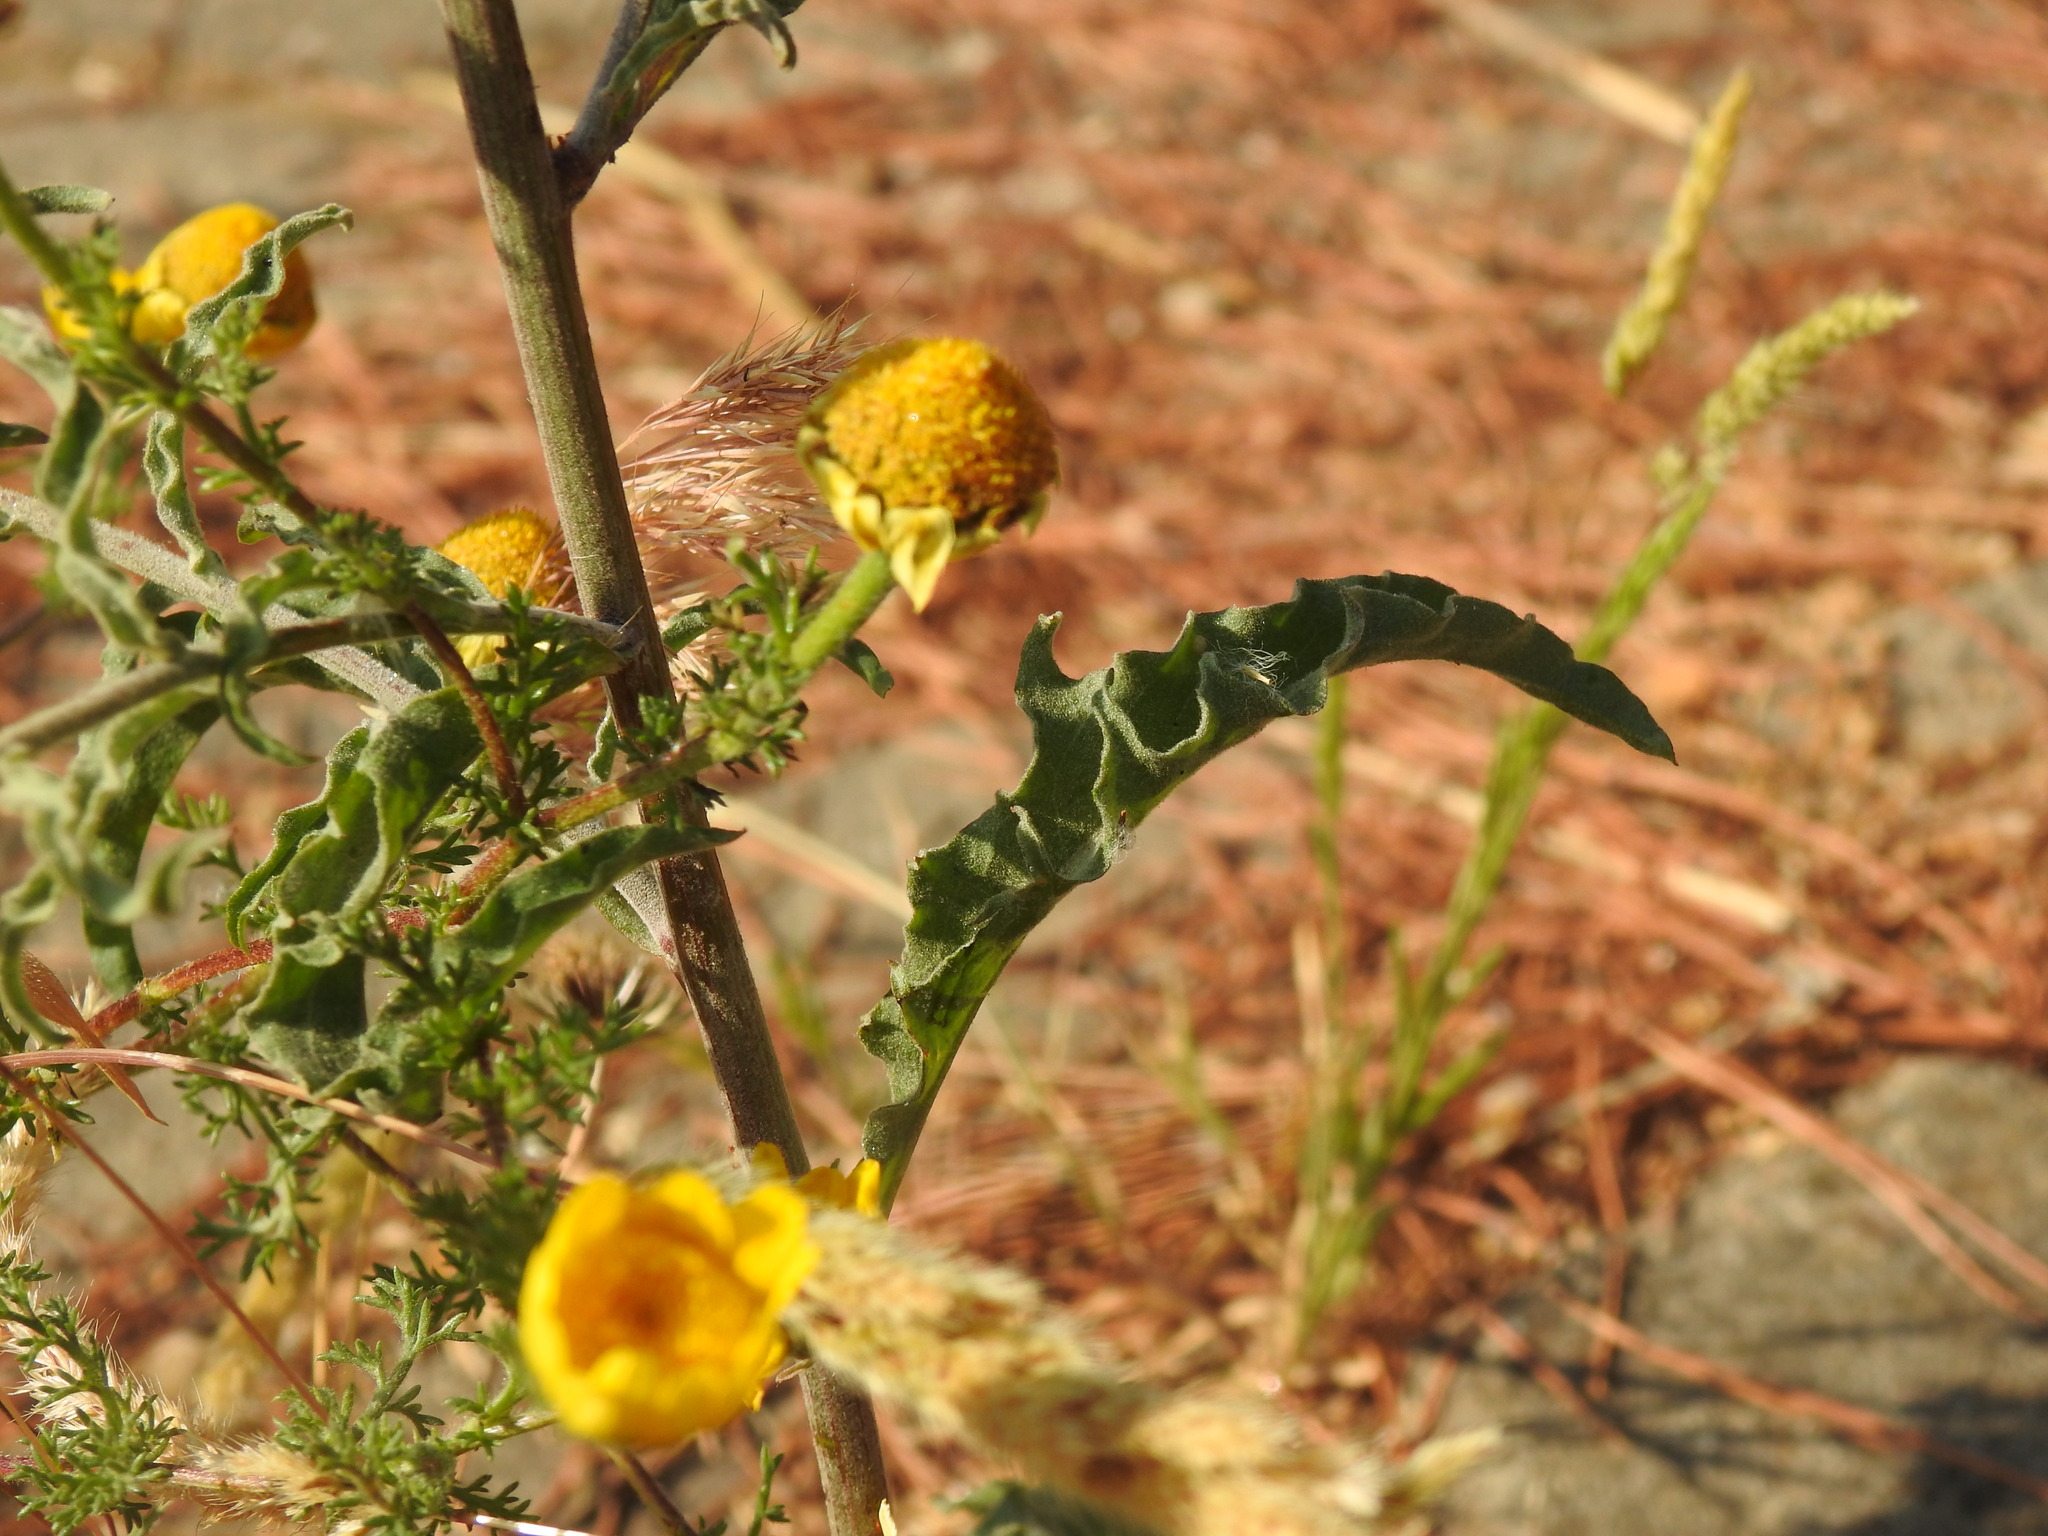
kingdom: Plantae
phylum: Tracheophyta
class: Magnoliopsida
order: Asterales
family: Asteraceae
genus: Andryala
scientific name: Andryala integrifolia
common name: Common andryala
